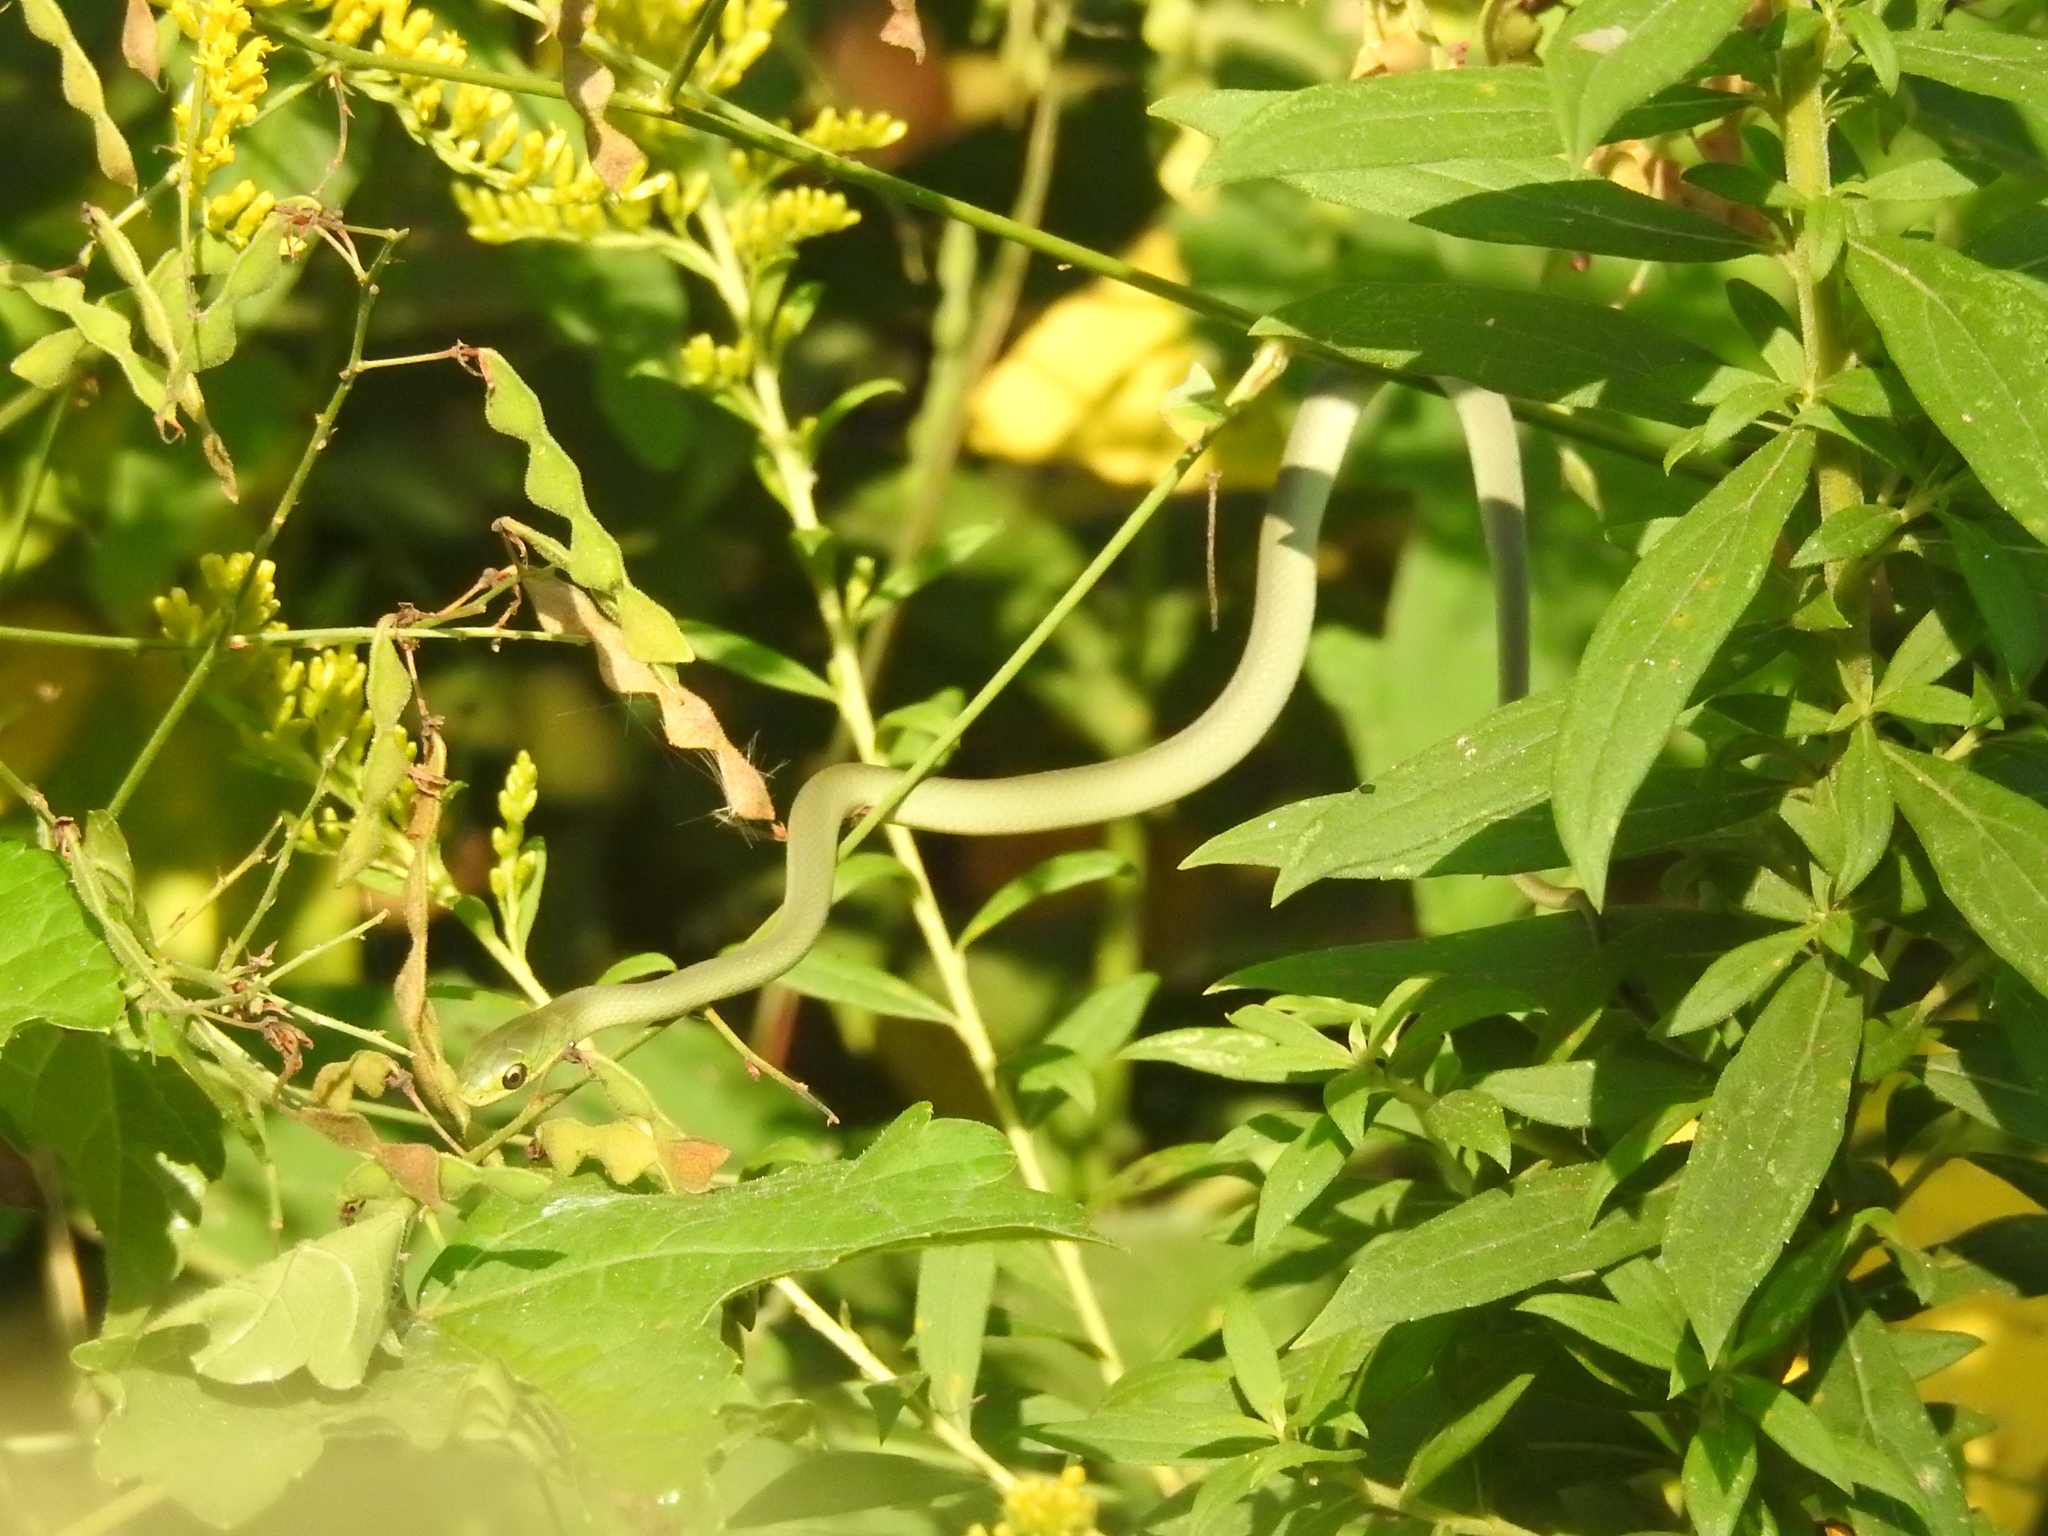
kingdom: Animalia
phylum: Chordata
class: Squamata
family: Colubridae
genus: Opheodrys
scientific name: Opheodrys aestivus
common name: Rough greensnake
